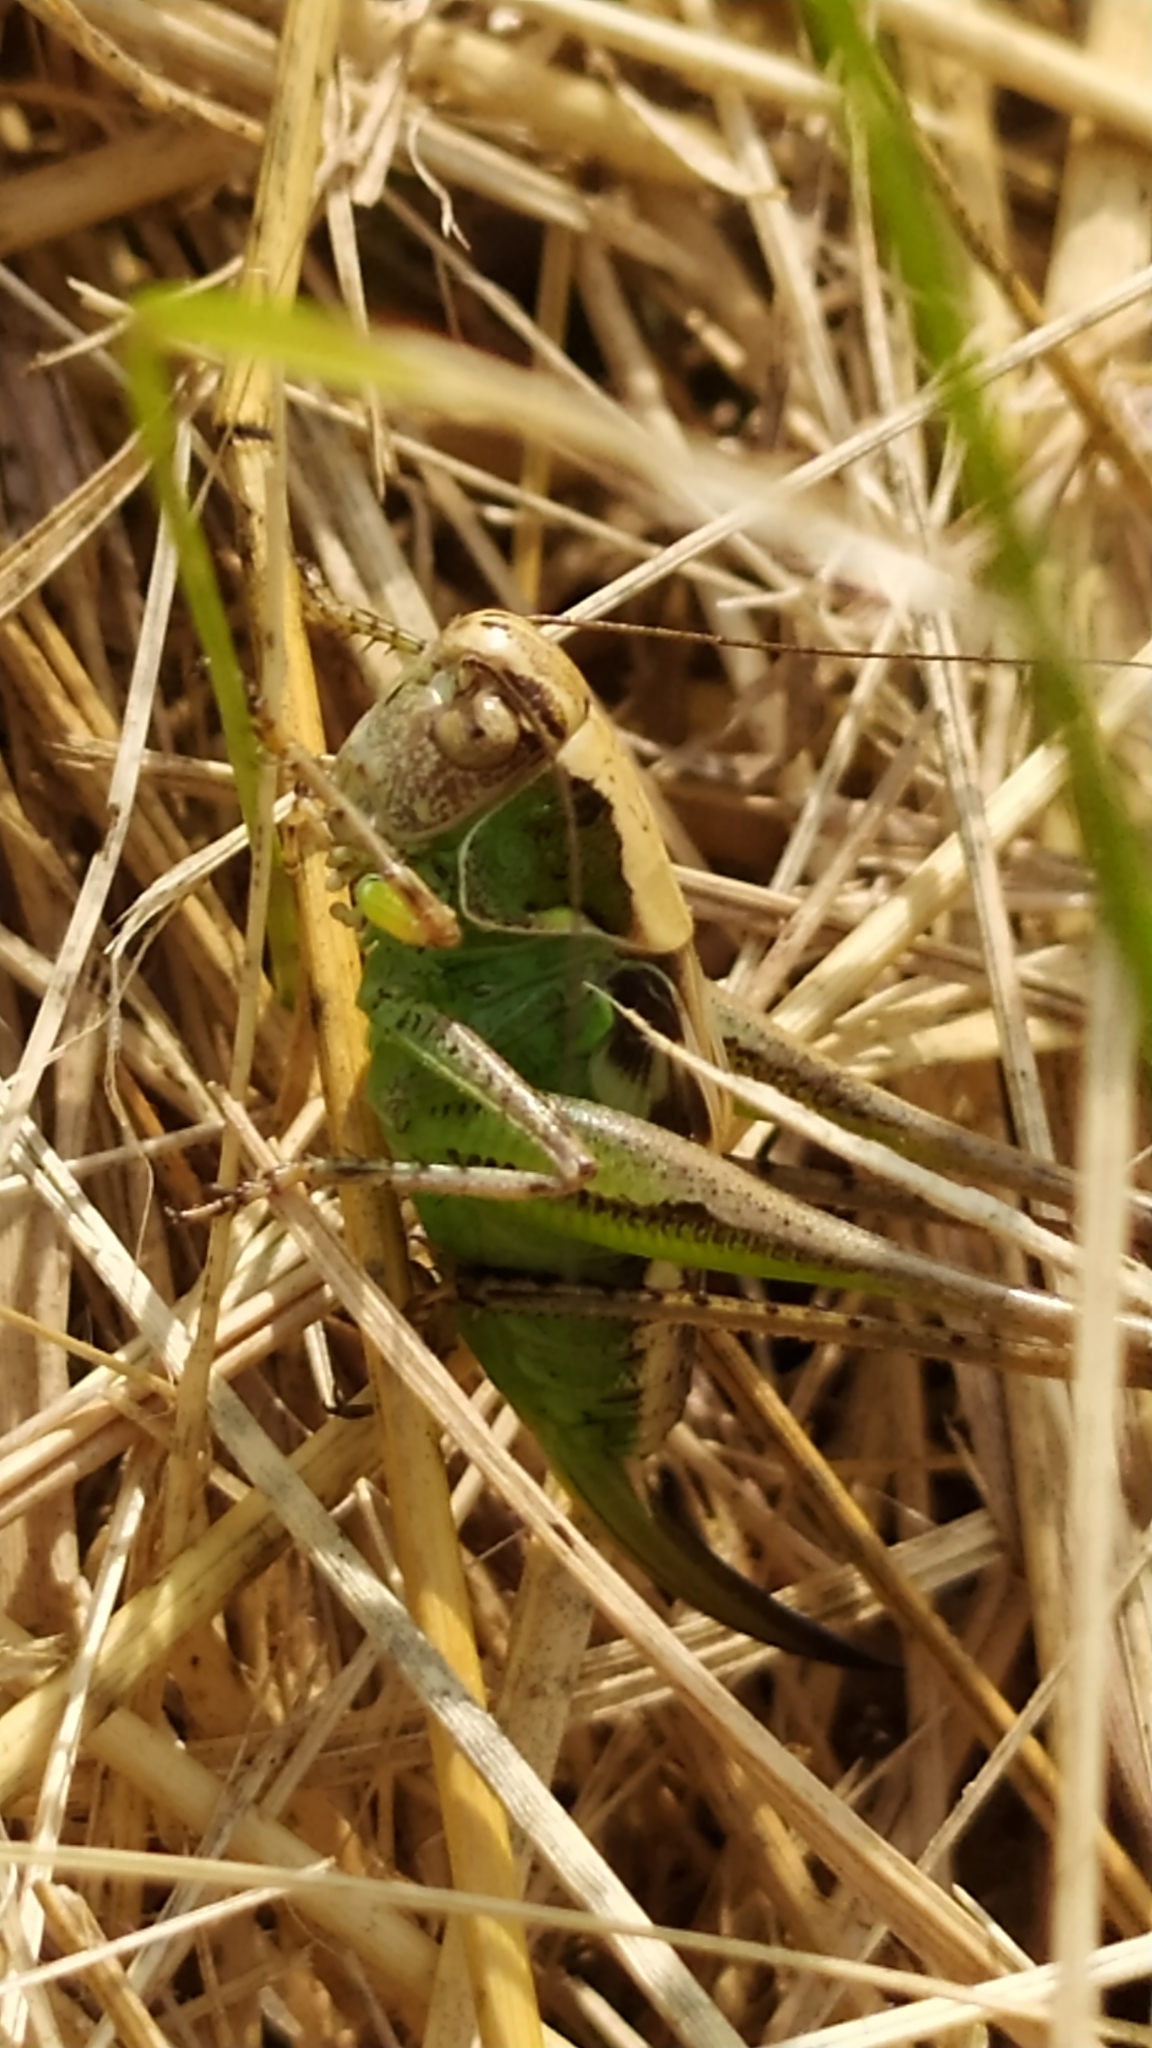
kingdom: Animalia
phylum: Arthropoda
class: Insecta
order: Orthoptera
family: Tettigoniidae
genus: Platycleis
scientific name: Platycleis albopunctata
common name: Grey bush-cricket
